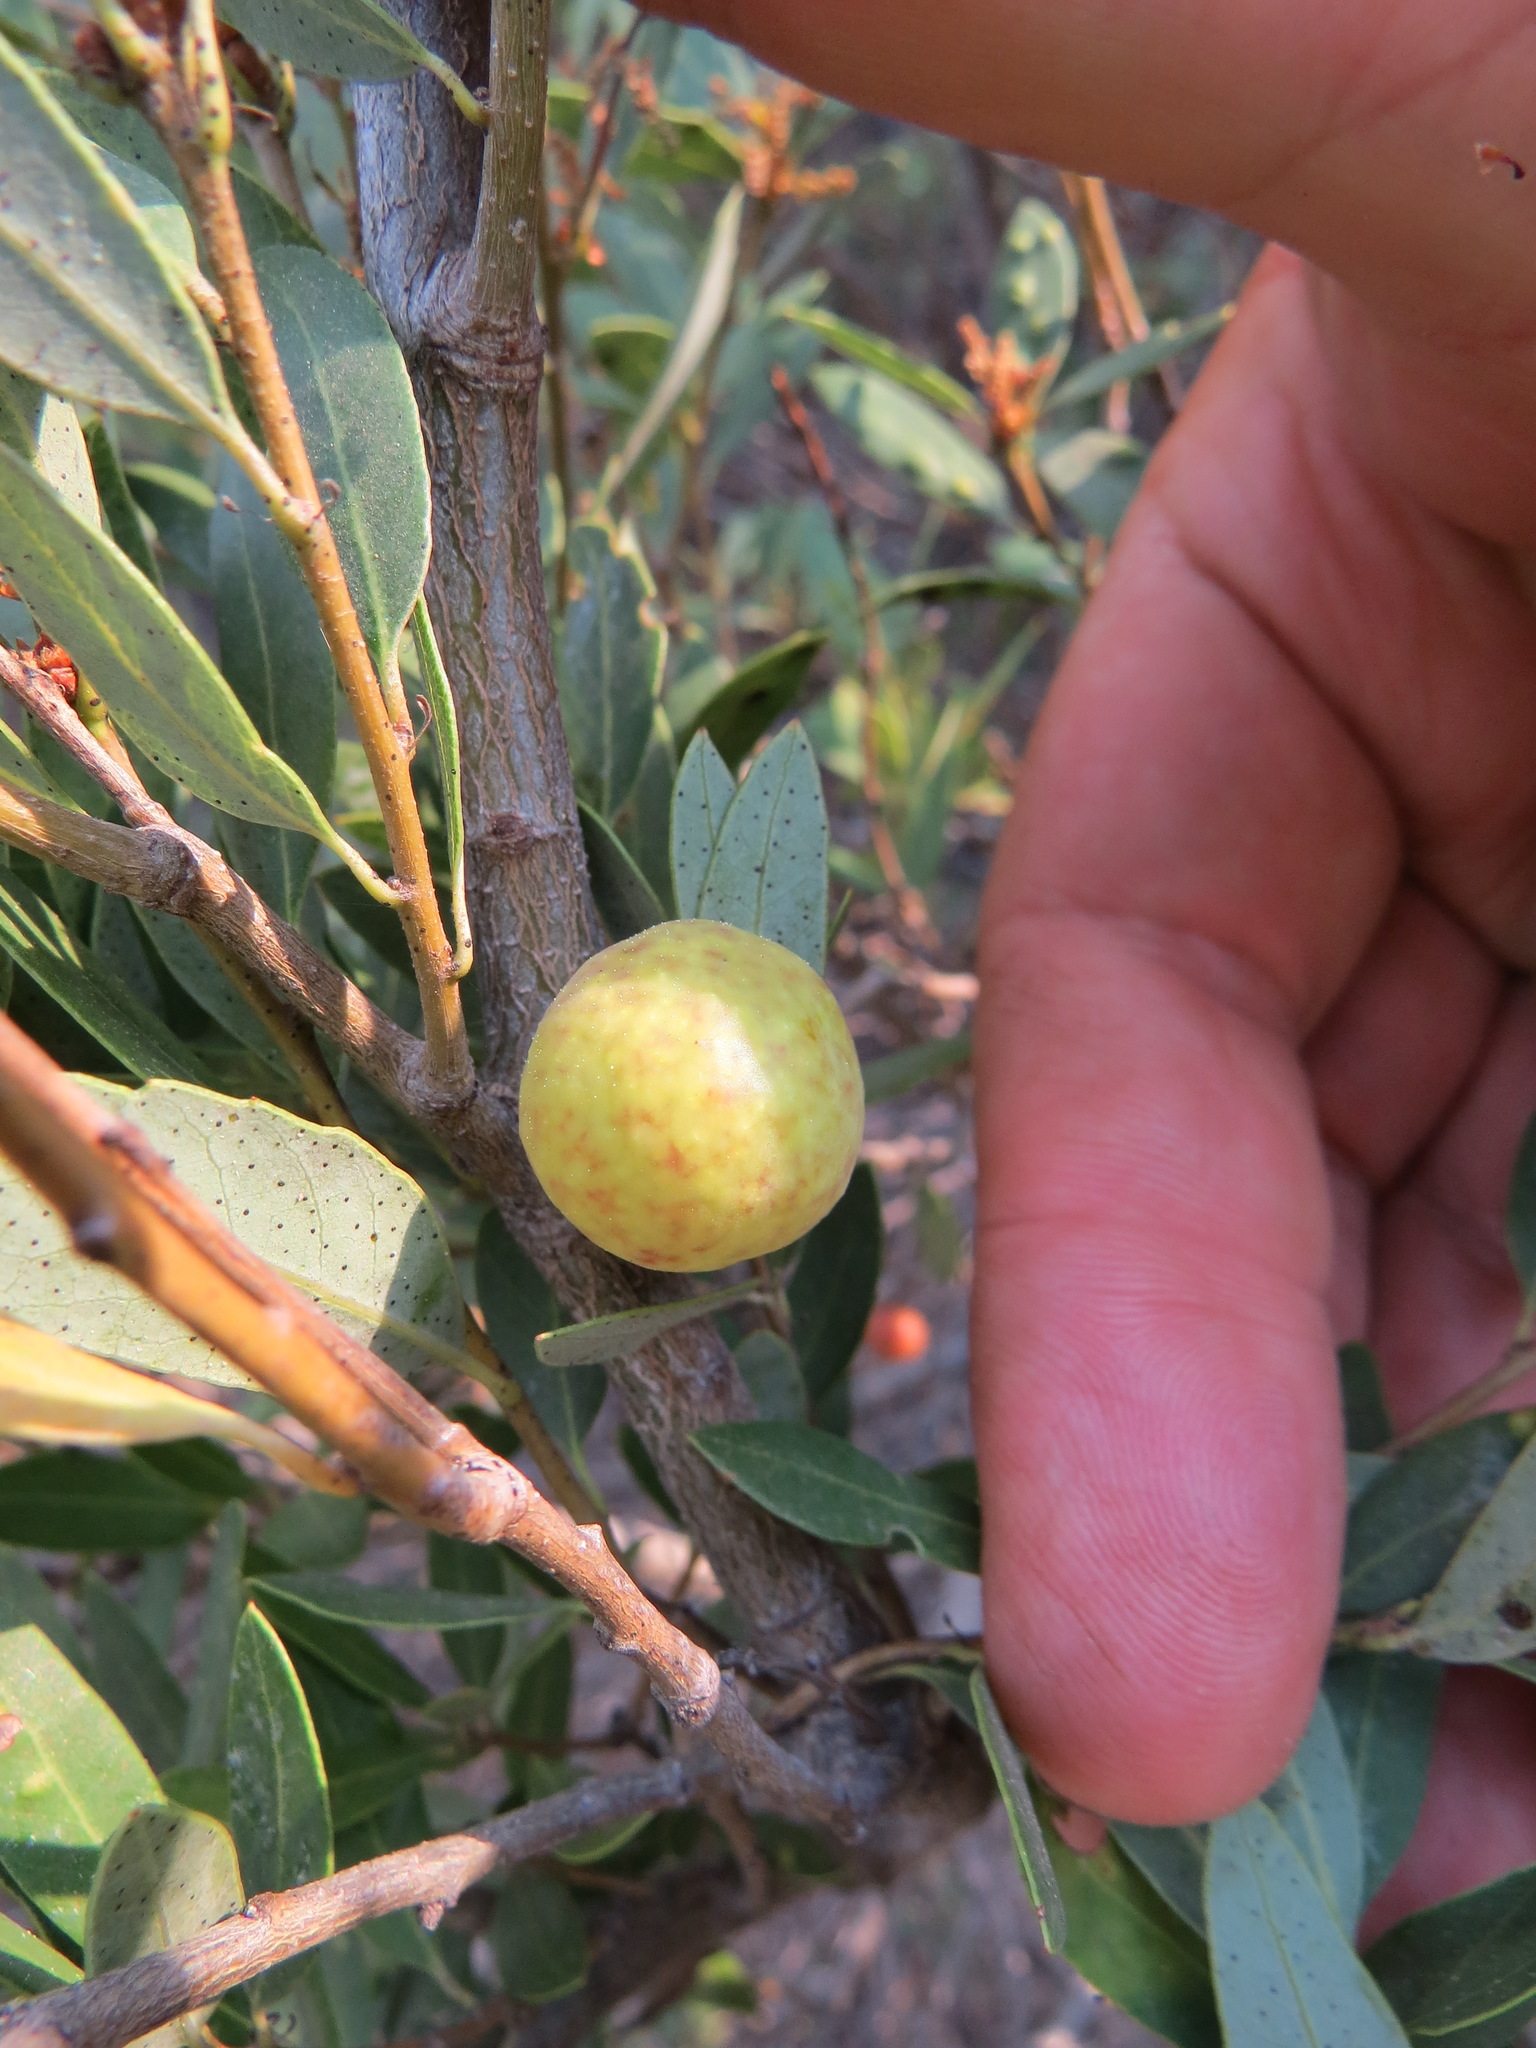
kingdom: Animalia
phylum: Arthropoda
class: Insecta
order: Hymenoptera
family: Cynipidae
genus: Andricus
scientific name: Andricus
